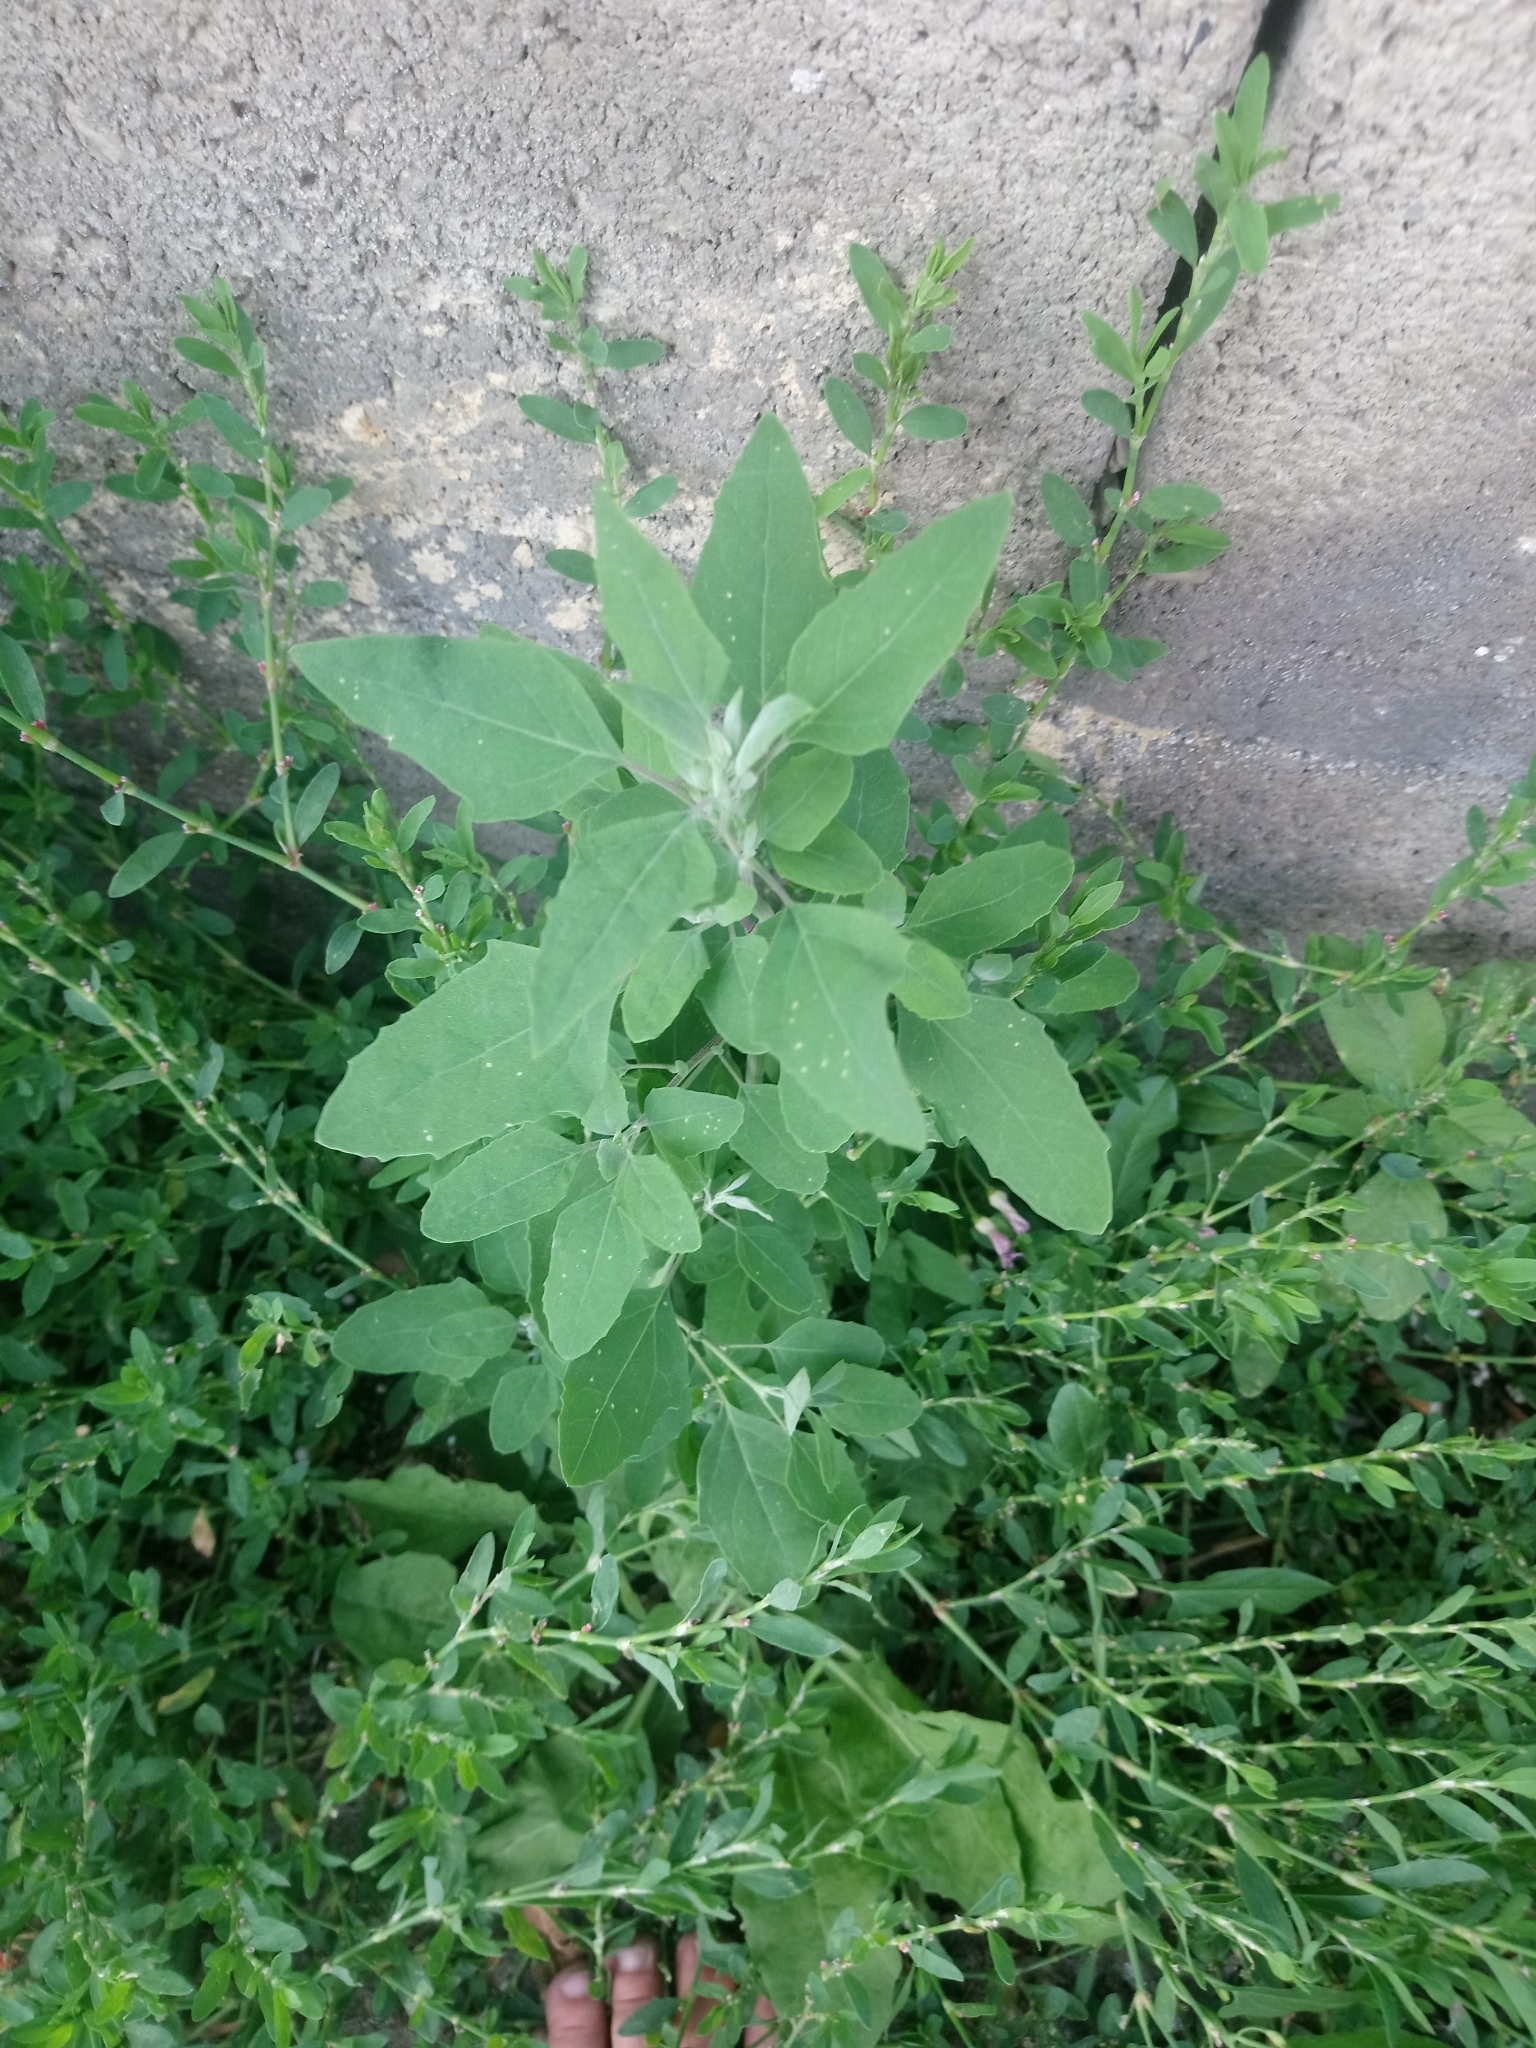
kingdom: Plantae
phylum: Tracheophyta
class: Magnoliopsida
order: Caryophyllales
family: Amaranthaceae
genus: Chenopodium
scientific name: Chenopodium album
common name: Fat-hen
